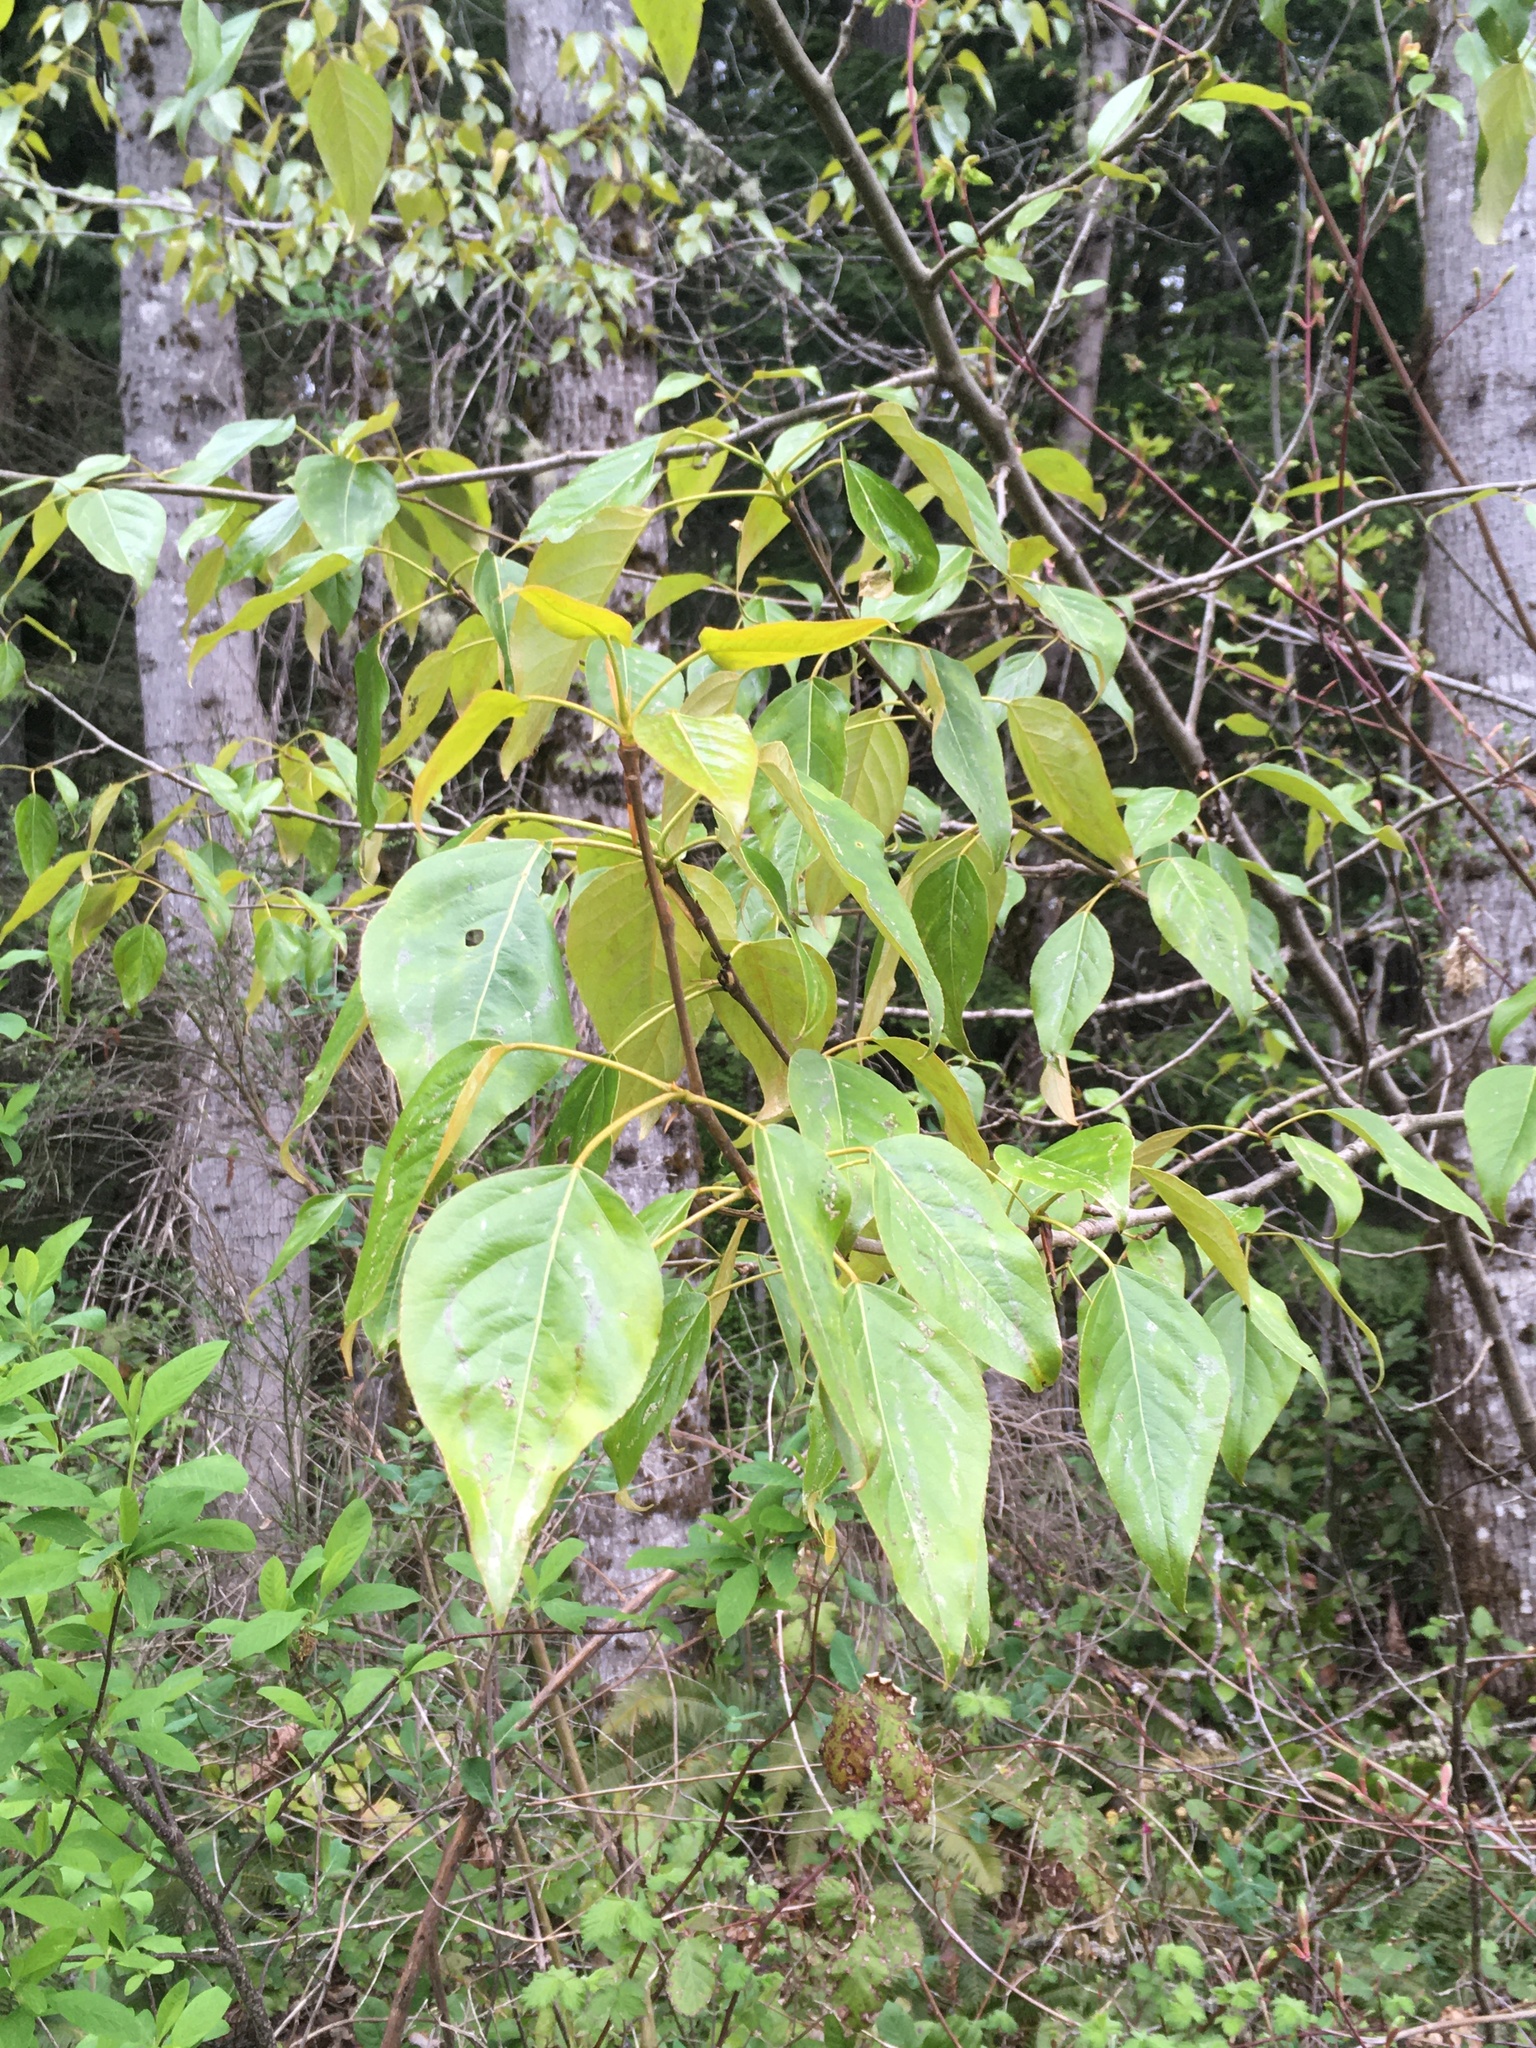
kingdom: Plantae
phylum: Tracheophyta
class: Magnoliopsida
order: Malpighiales
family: Salicaceae
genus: Populus
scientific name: Populus trichocarpa
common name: Black cottonwood
